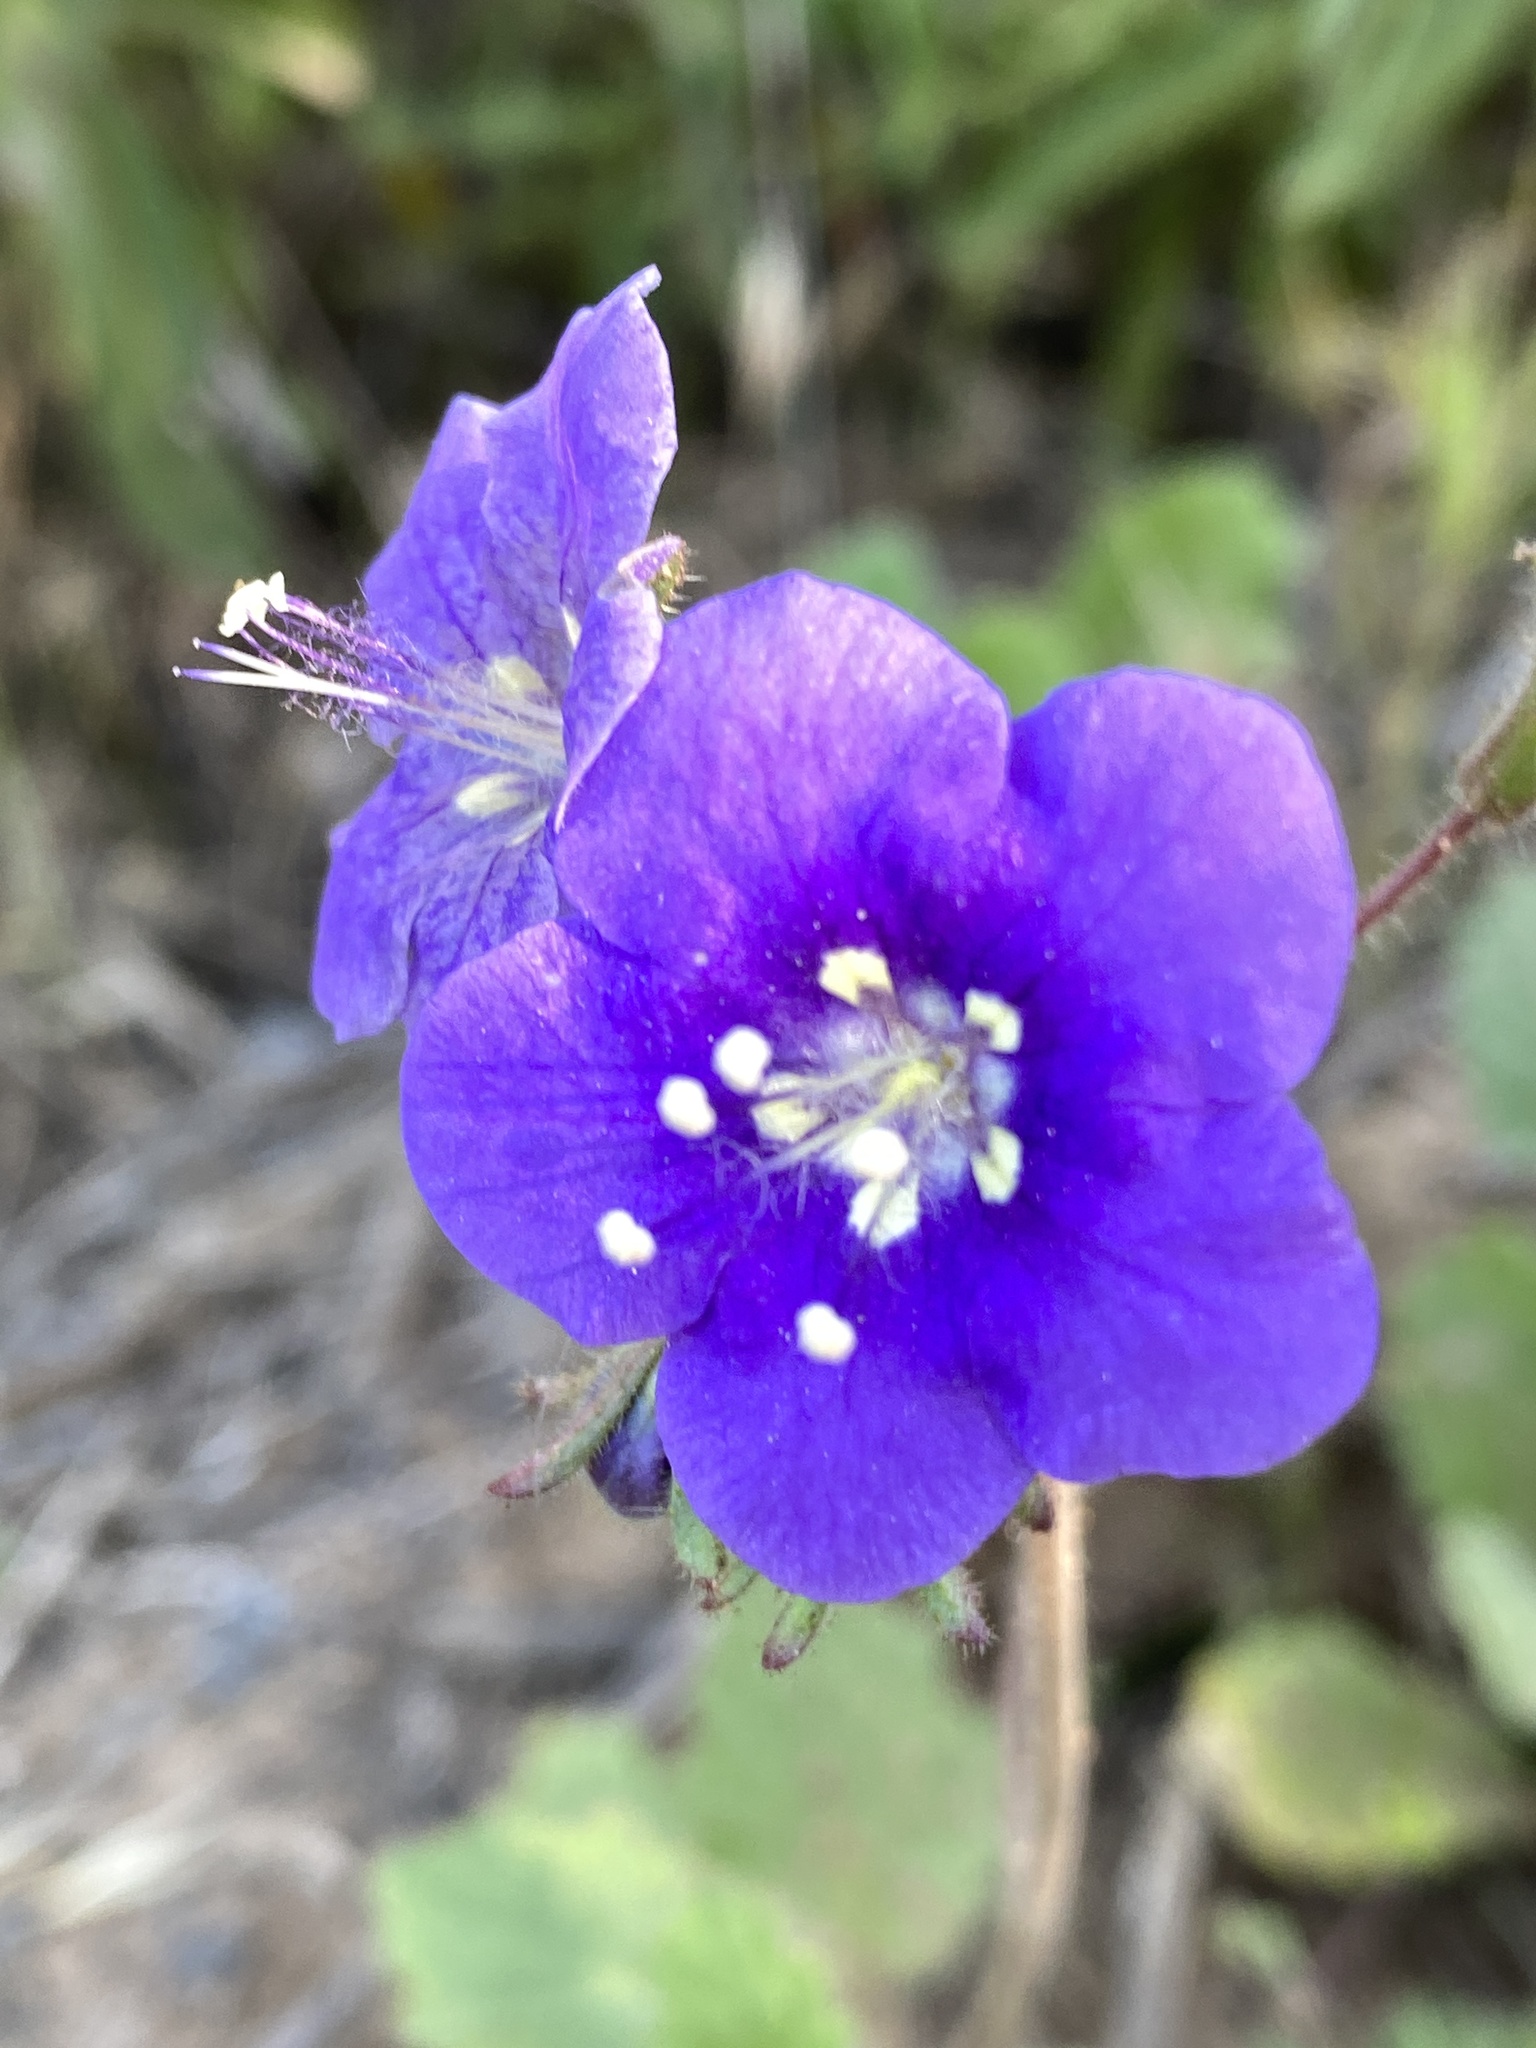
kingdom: Plantae
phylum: Tracheophyta
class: Magnoliopsida
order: Boraginales
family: Hydrophyllaceae
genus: Phacelia
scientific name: Phacelia parryi
